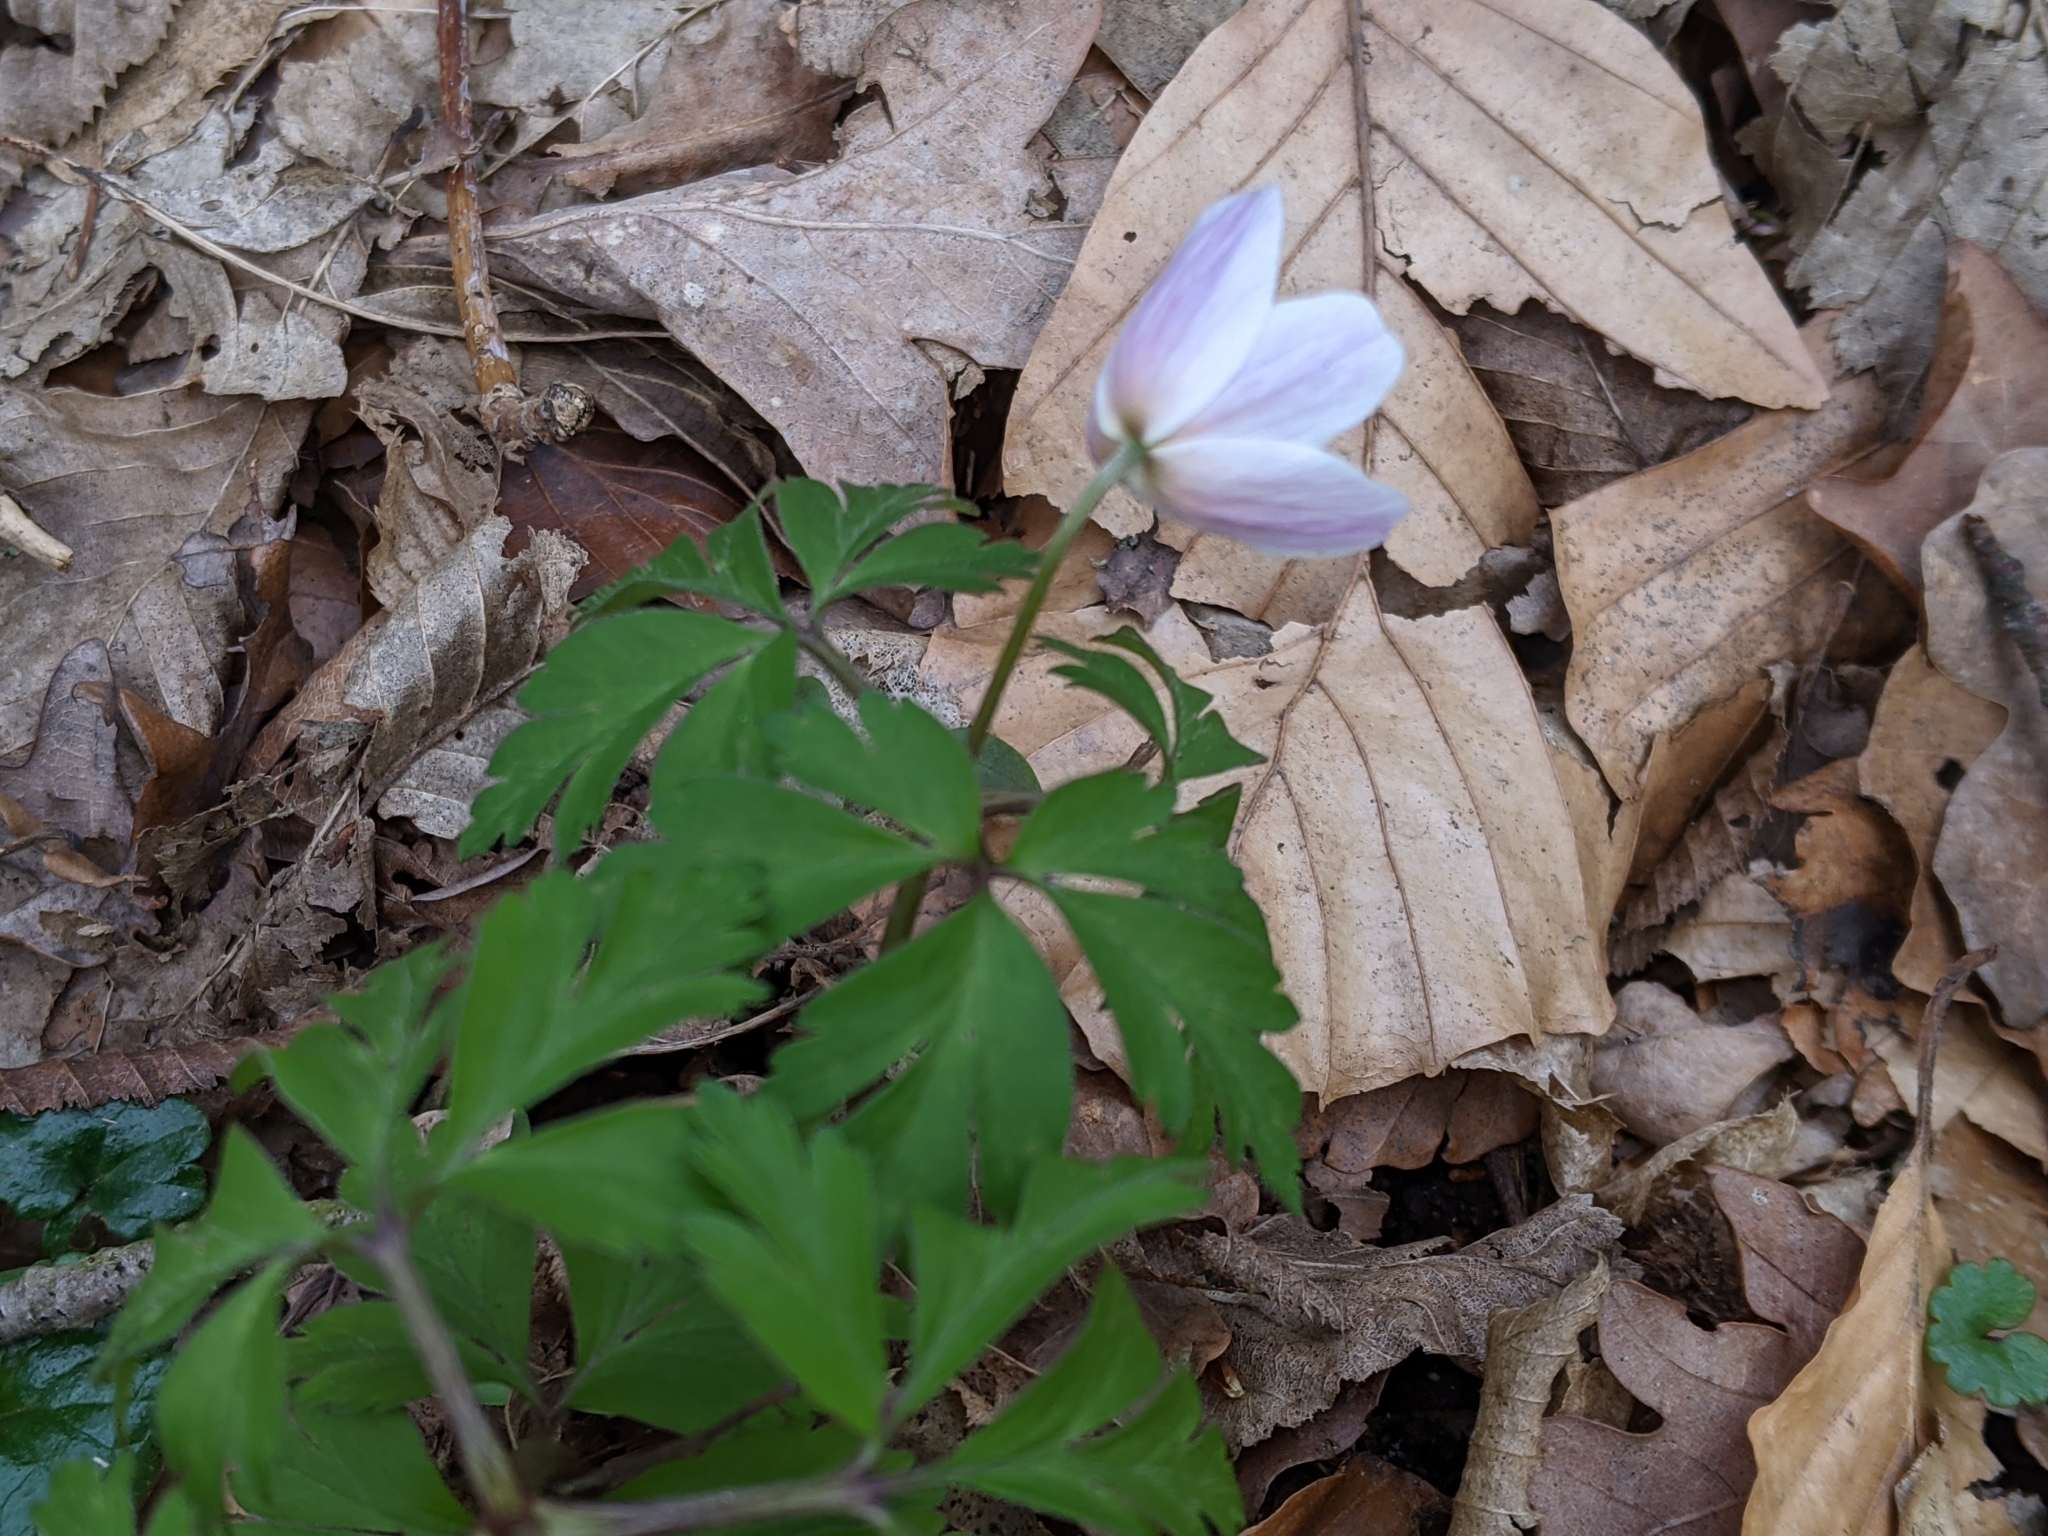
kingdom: Plantae
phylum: Tracheophyta
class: Magnoliopsida
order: Ranunculales
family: Ranunculaceae
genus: Anemone
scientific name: Anemone nemorosa
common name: Wood anemone
